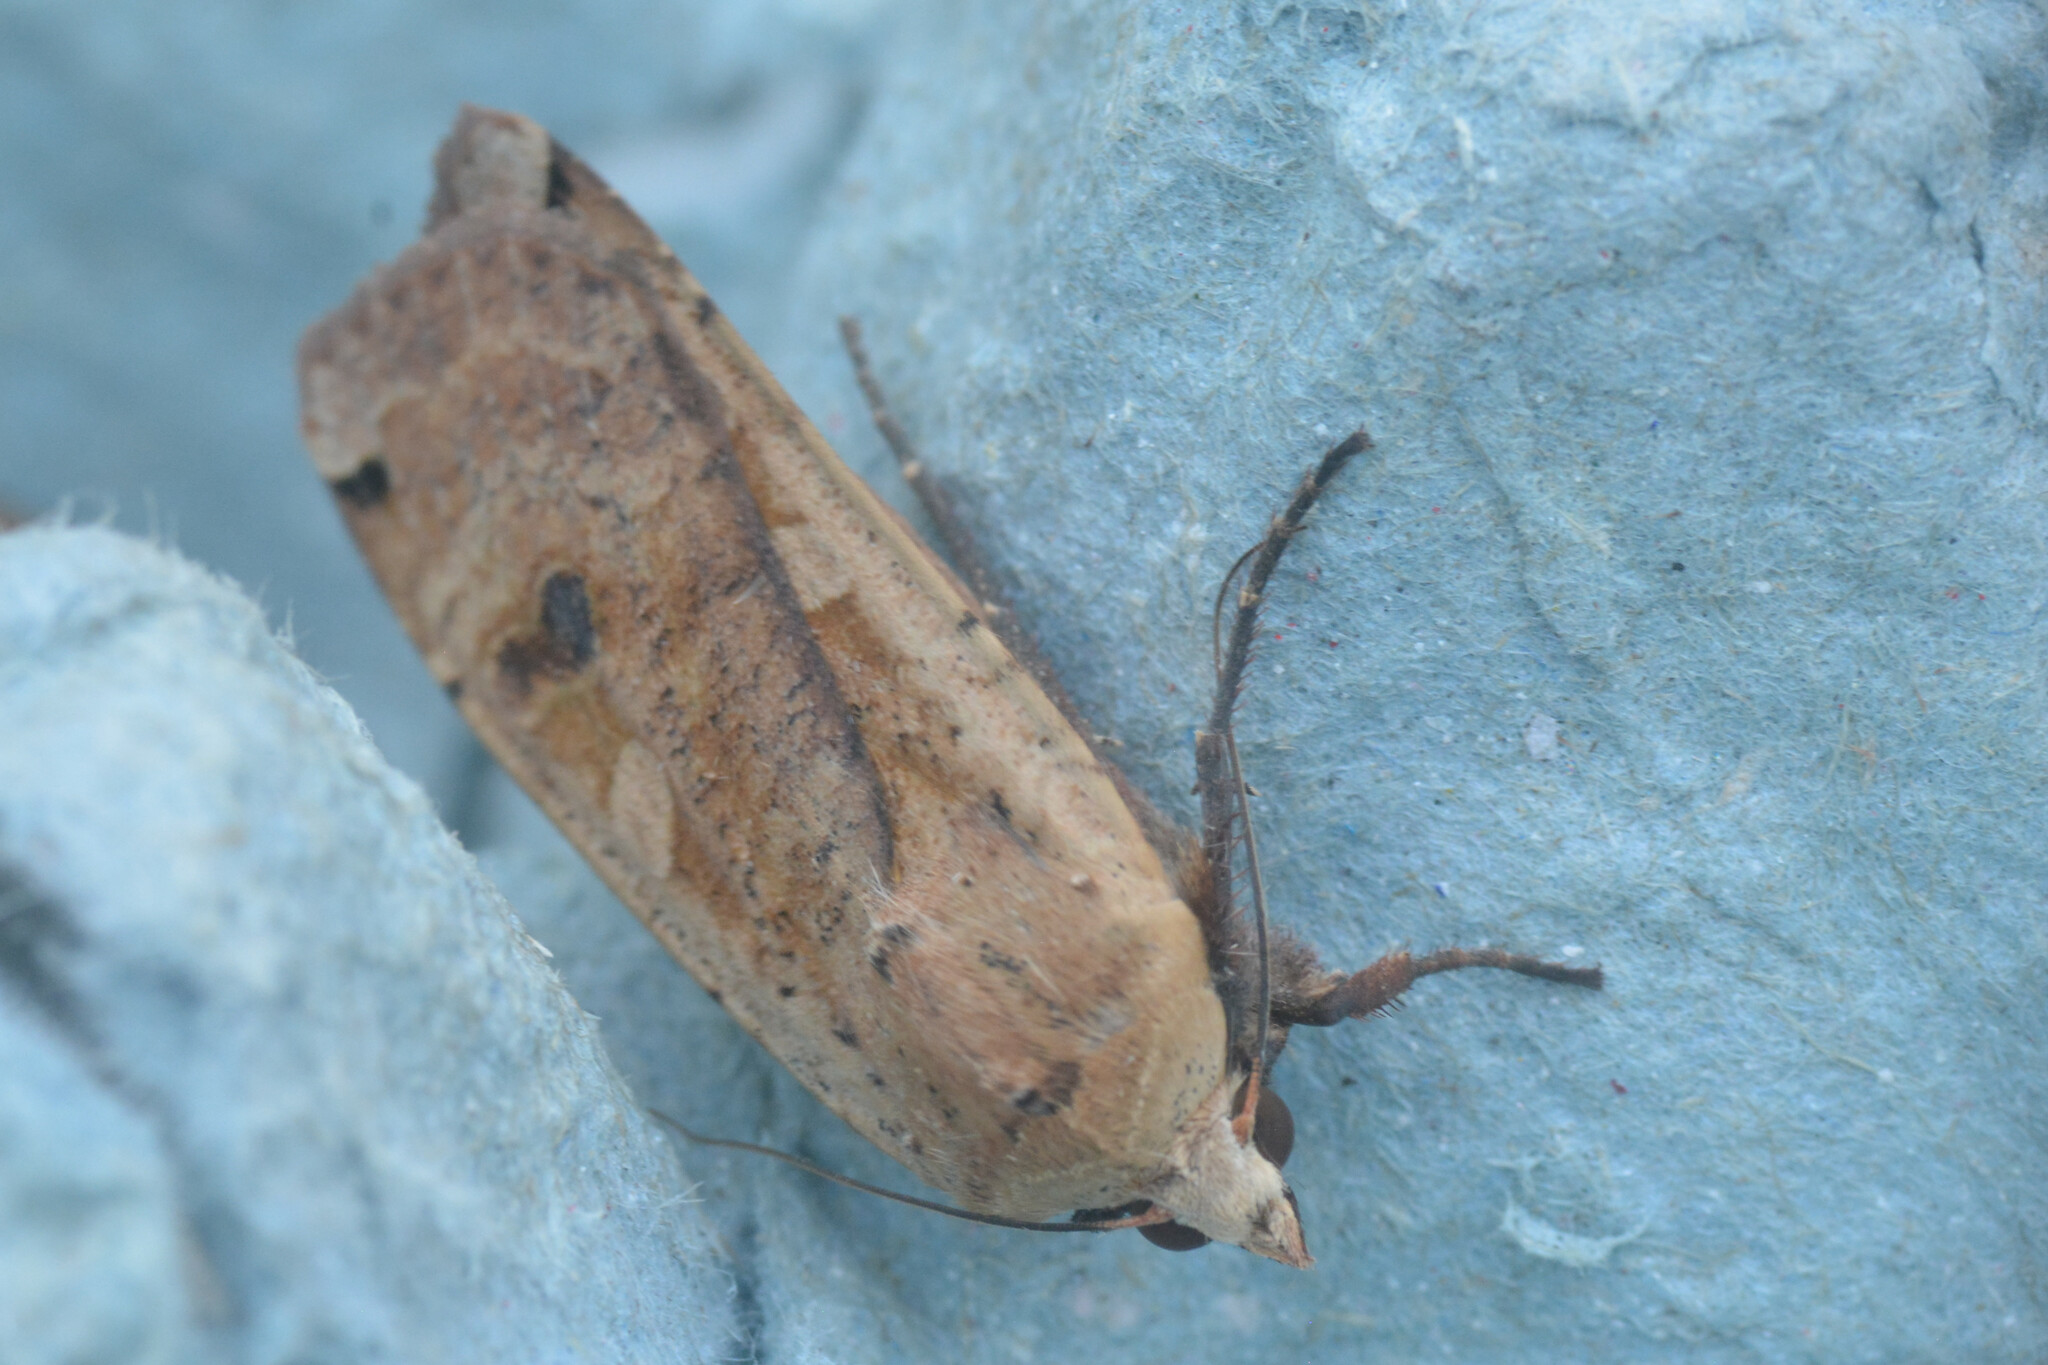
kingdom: Animalia
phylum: Arthropoda
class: Insecta
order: Lepidoptera
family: Noctuidae
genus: Noctua
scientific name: Noctua pronuba
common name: Large yellow underwing
